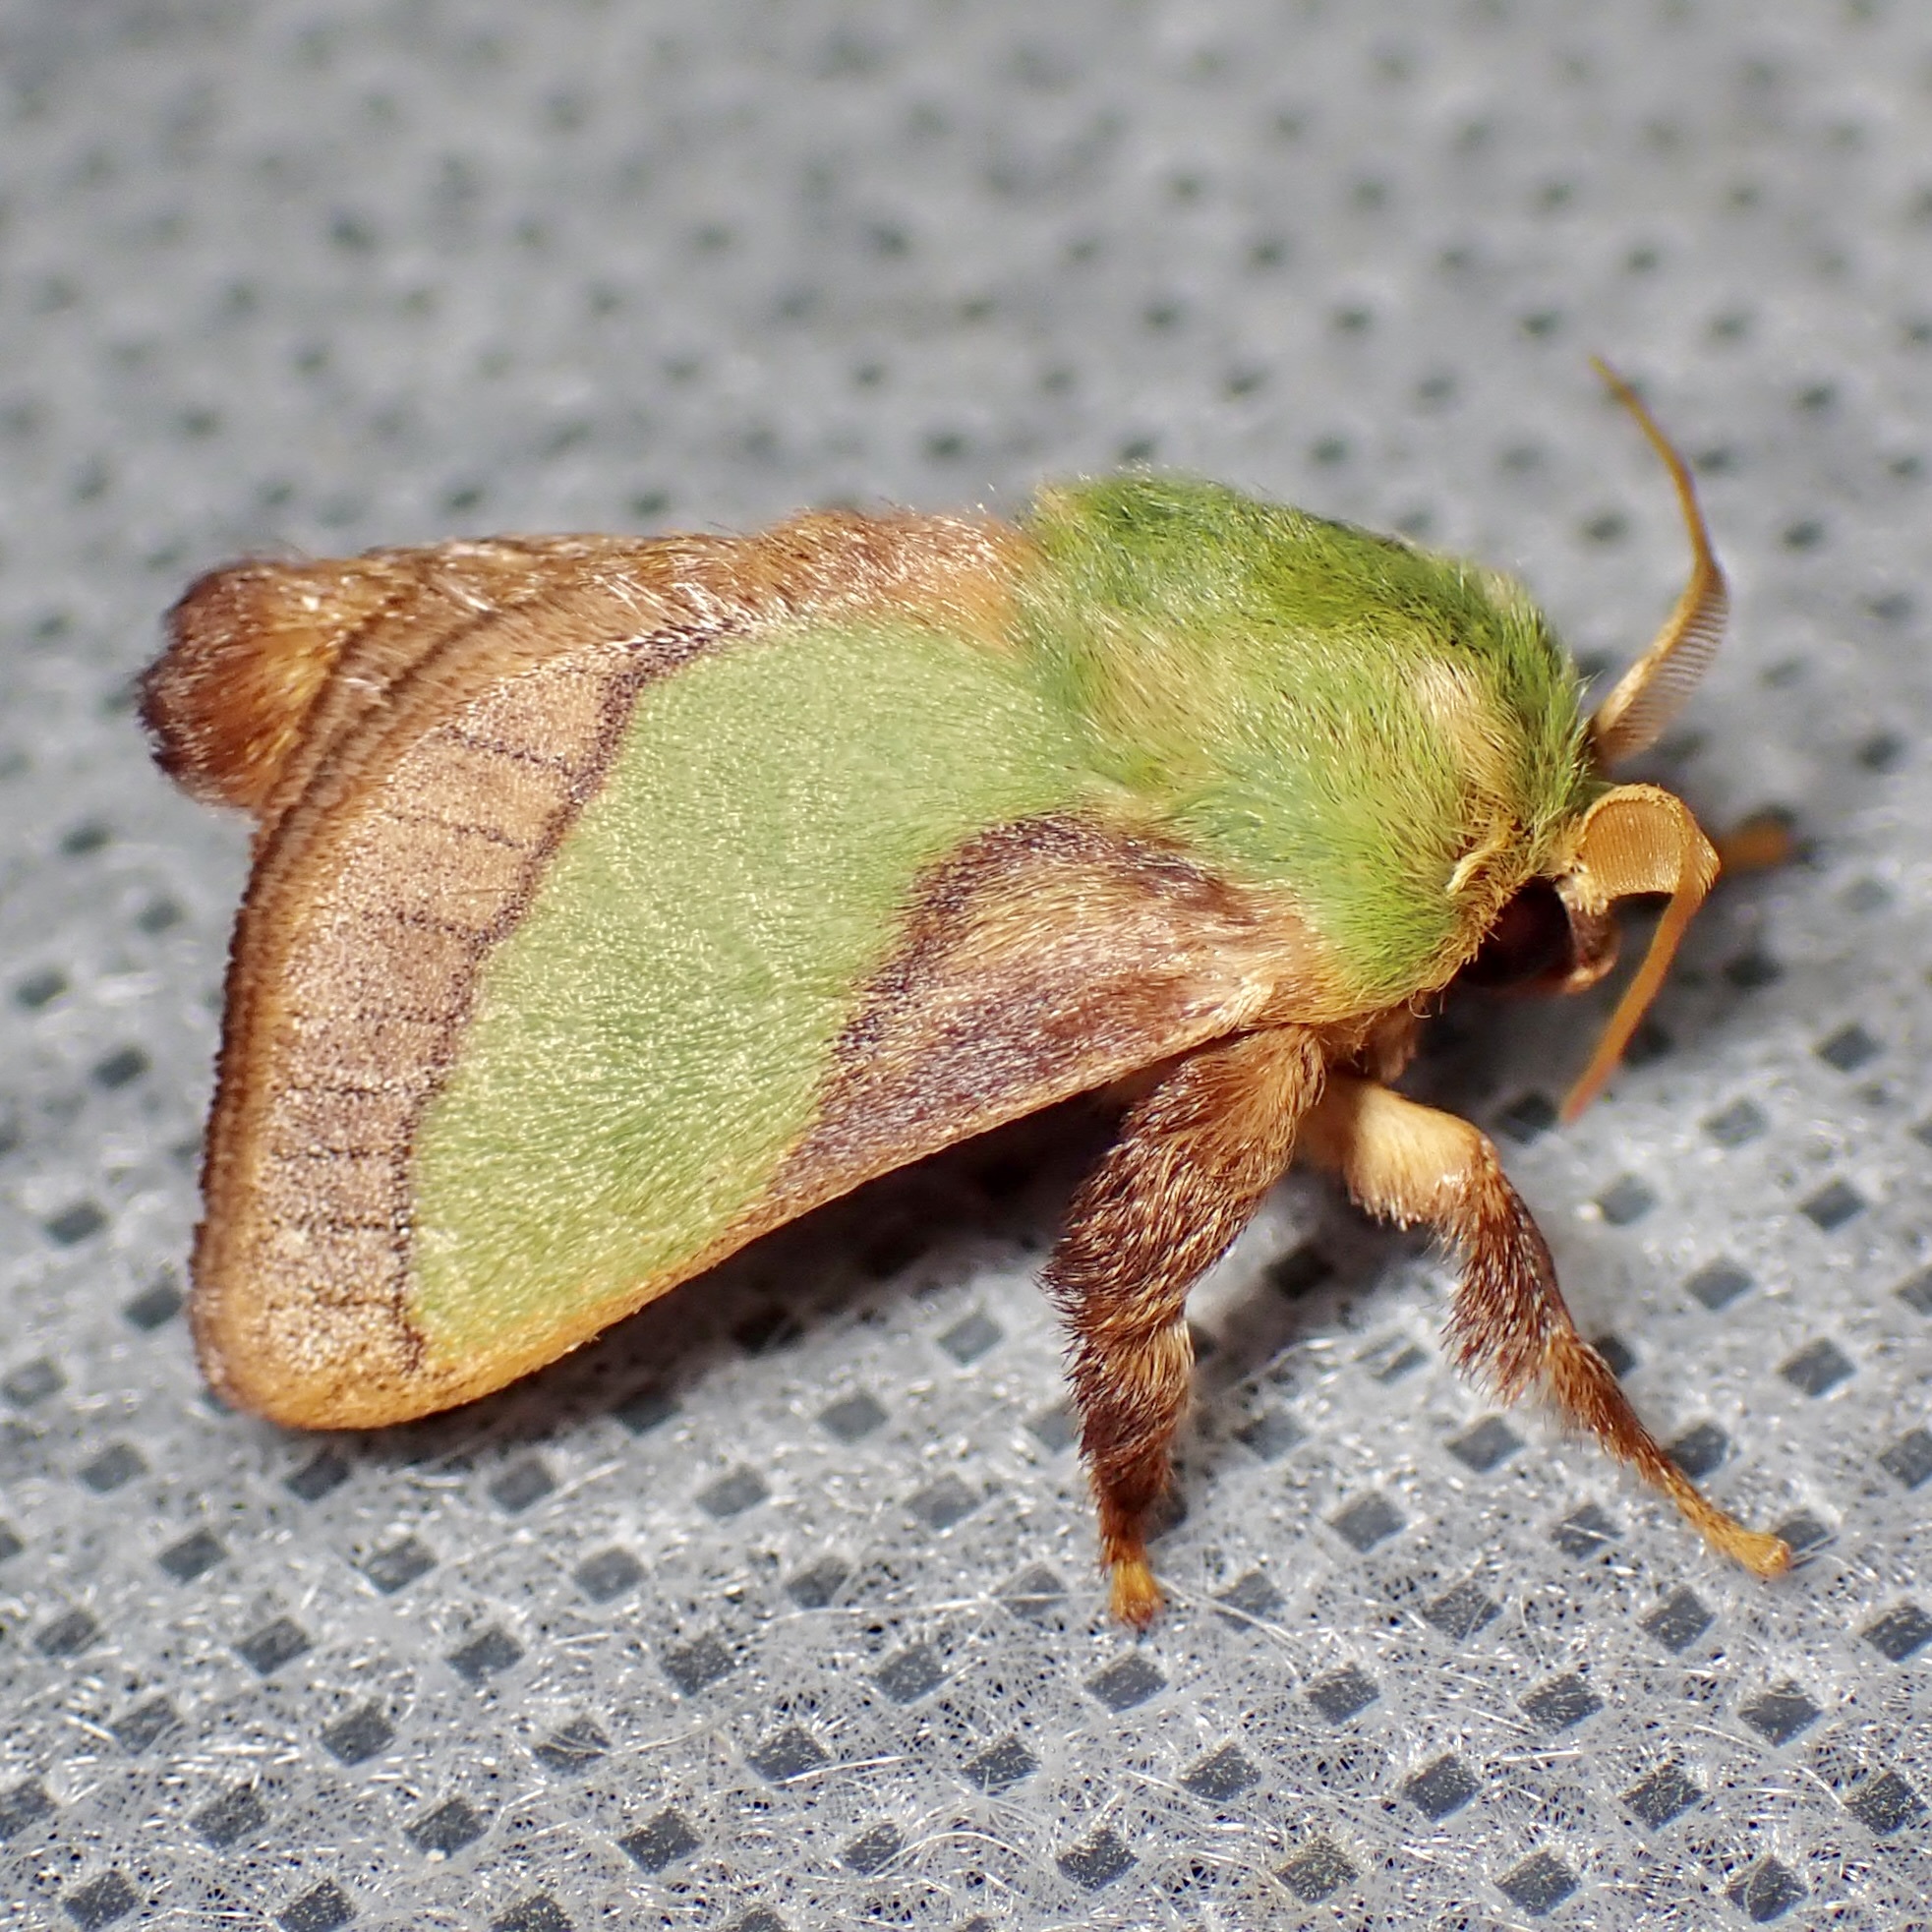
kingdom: Animalia
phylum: Arthropoda
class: Insecta
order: Lepidoptera
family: Limacodidae
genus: Parasa
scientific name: Parasa chloris
